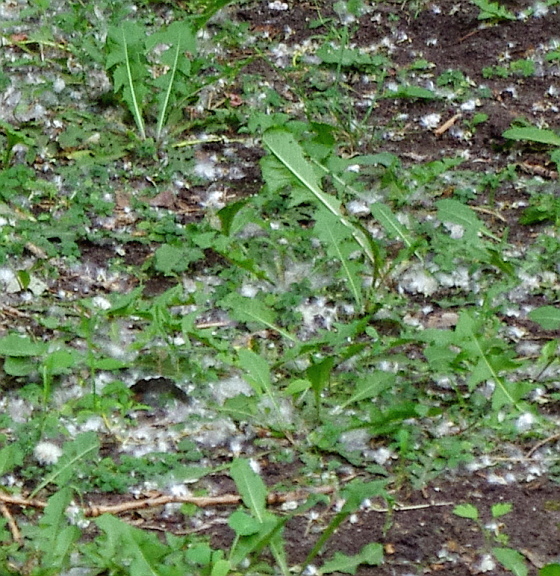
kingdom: Plantae
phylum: Tracheophyta
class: Magnoliopsida
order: Asterales
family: Asteraceae
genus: Taraxacum
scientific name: Taraxacum officinale
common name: Common dandelion
